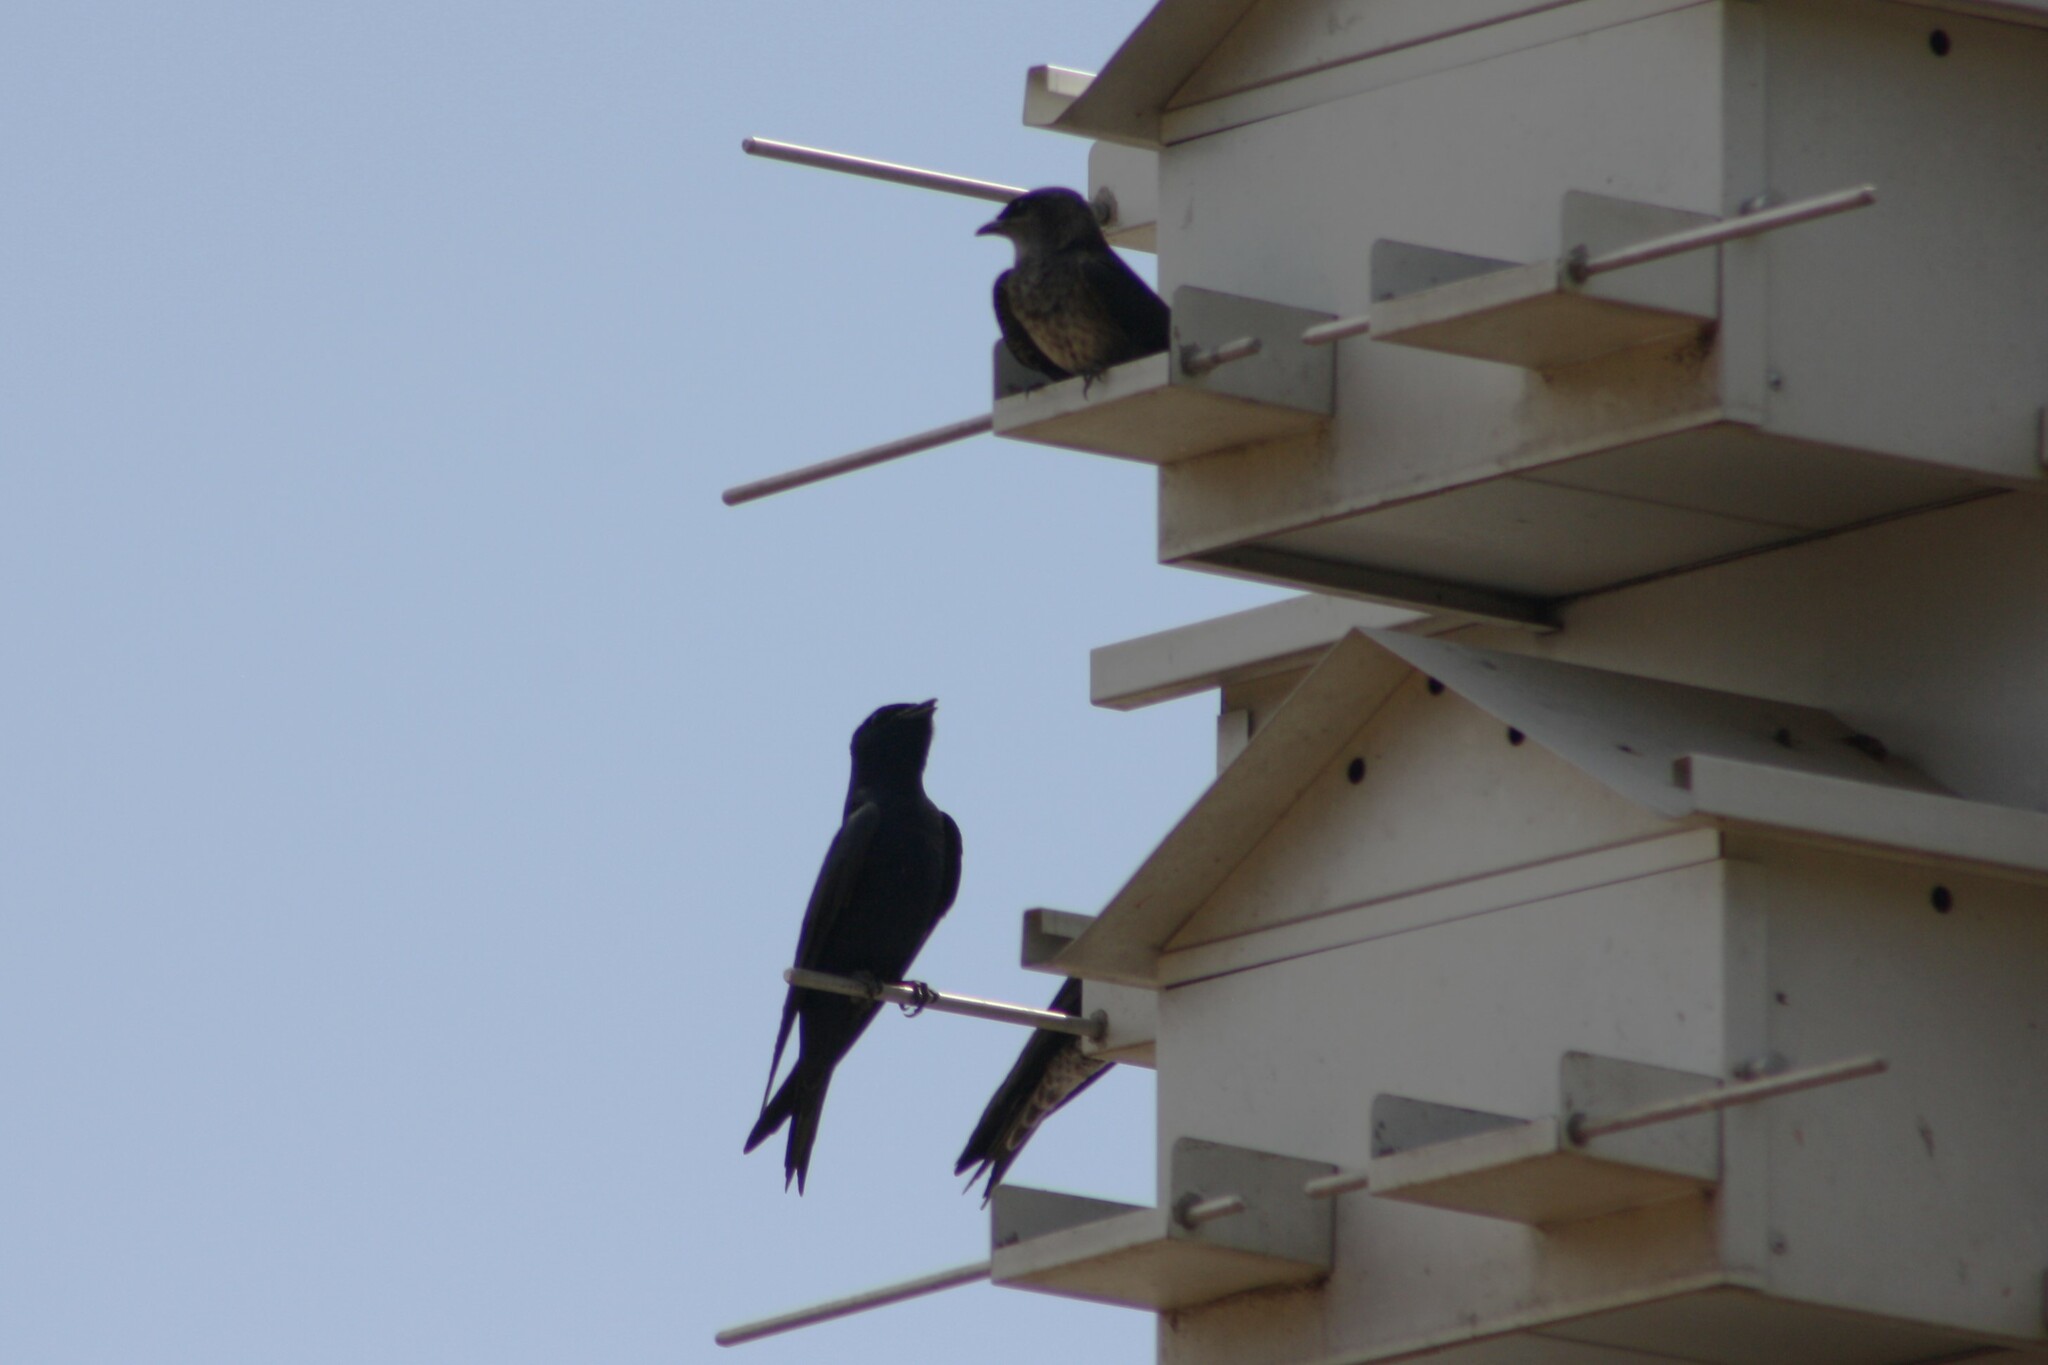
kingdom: Animalia
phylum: Chordata
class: Aves
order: Passeriformes
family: Hirundinidae
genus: Progne
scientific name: Progne subis
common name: Purple martin
